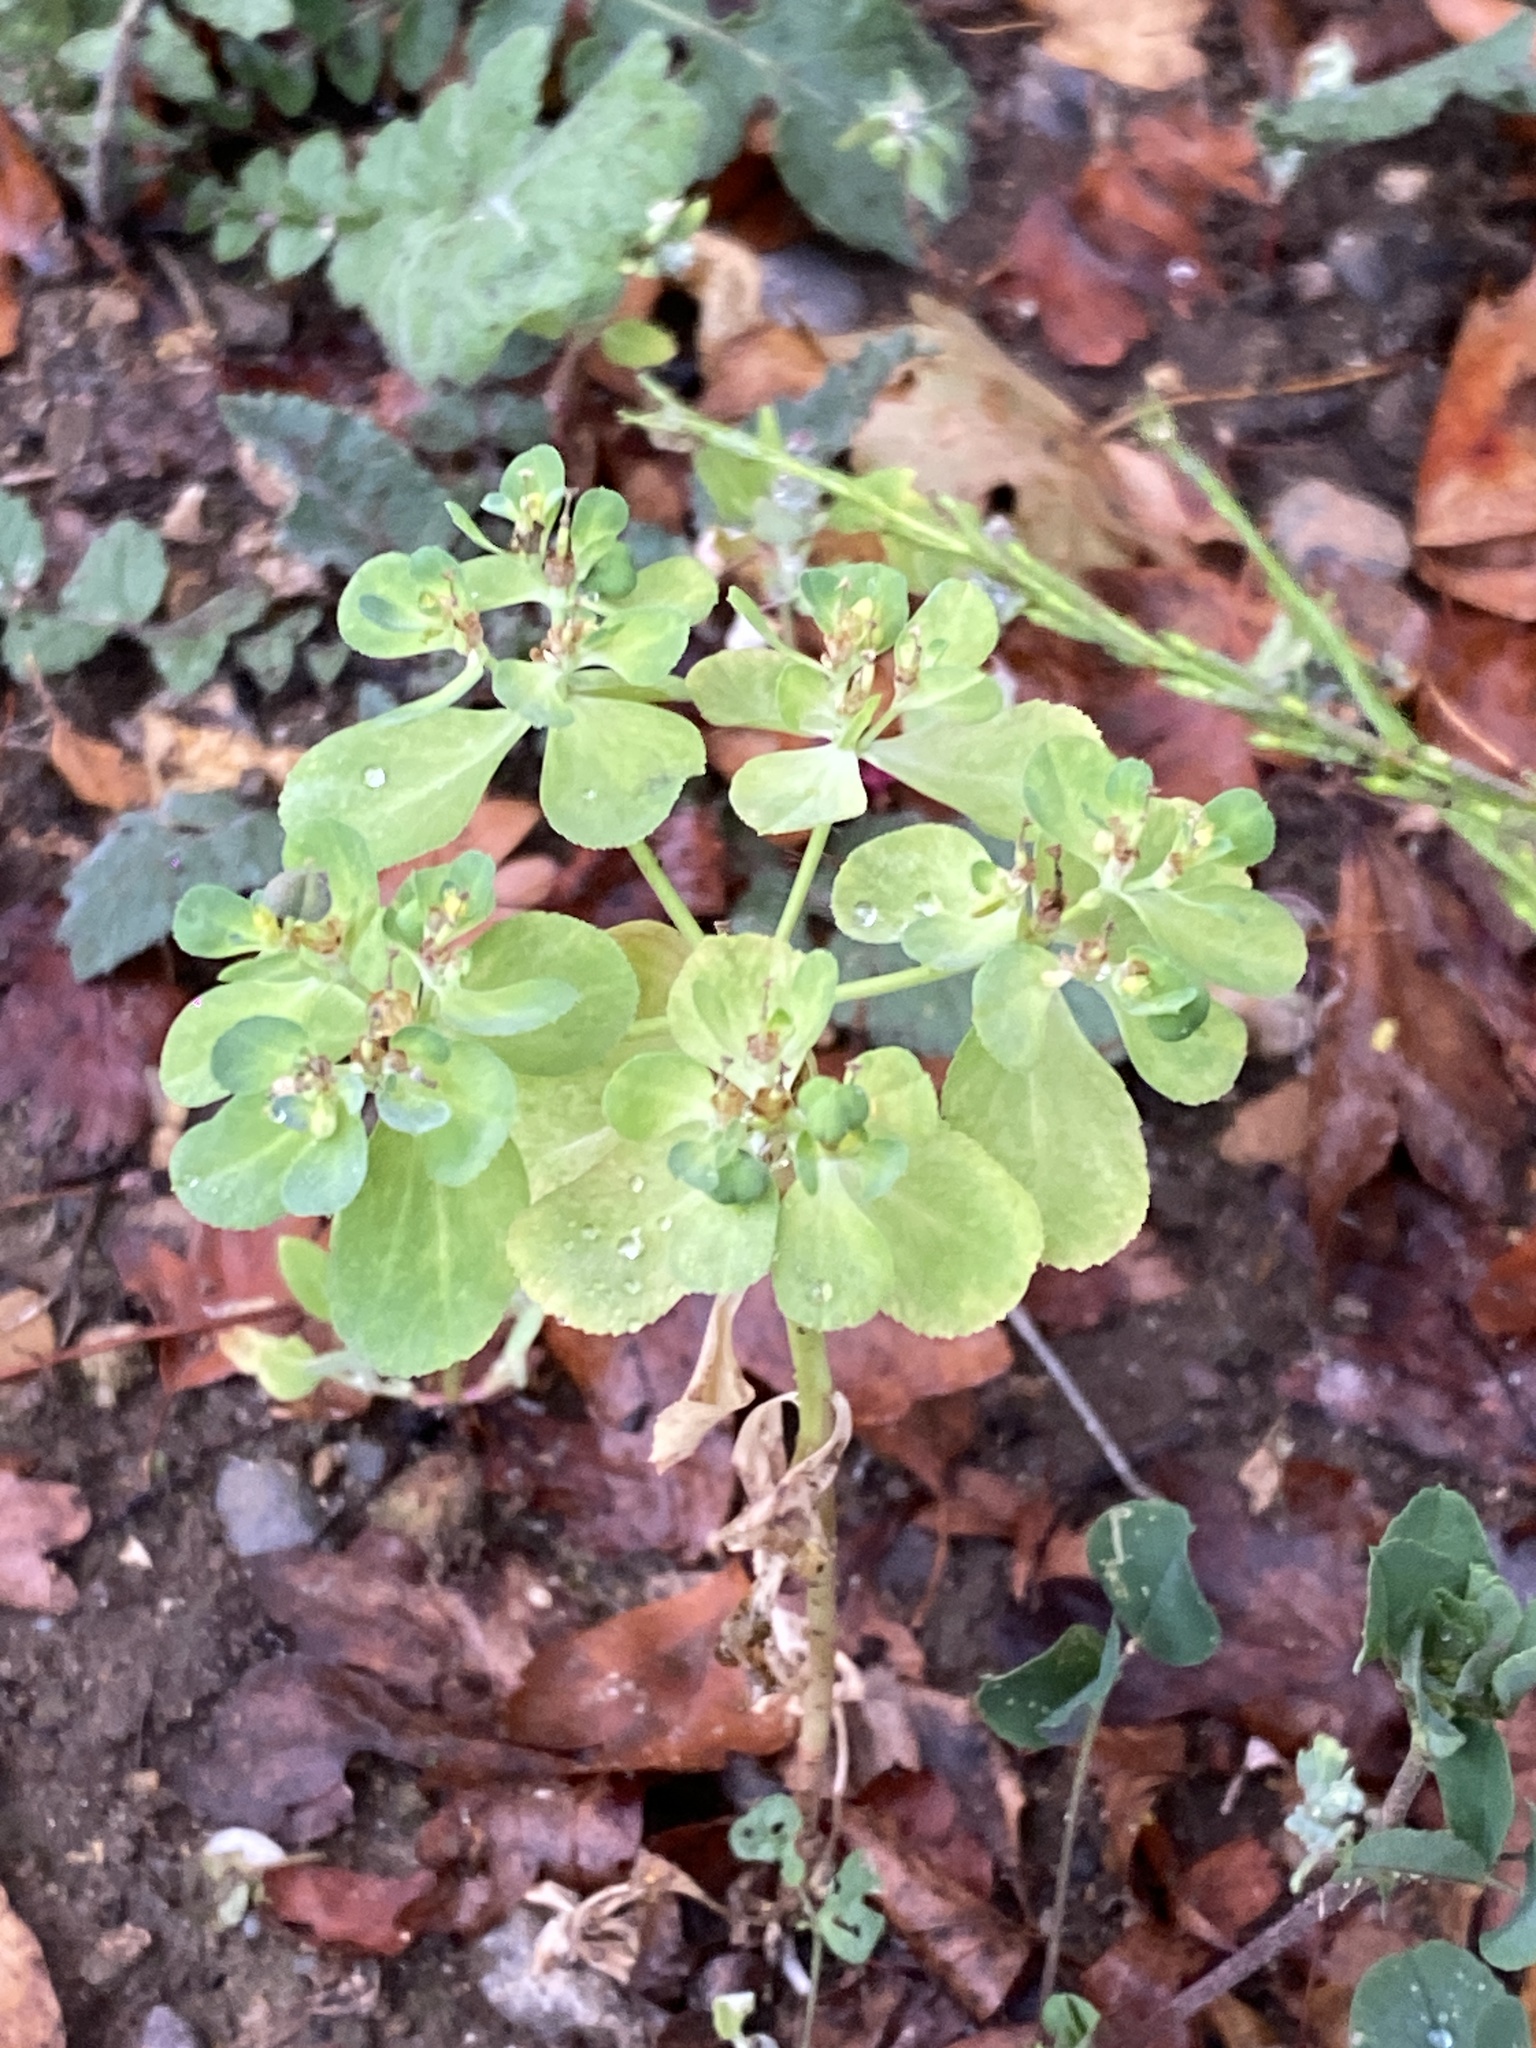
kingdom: Plantae
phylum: Tracheophyta
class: Magnoliopsida
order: Malpighiales
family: Euphorbiaceae
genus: Euphorbia
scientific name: Euphorbia helioscopia
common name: Sun spurge
